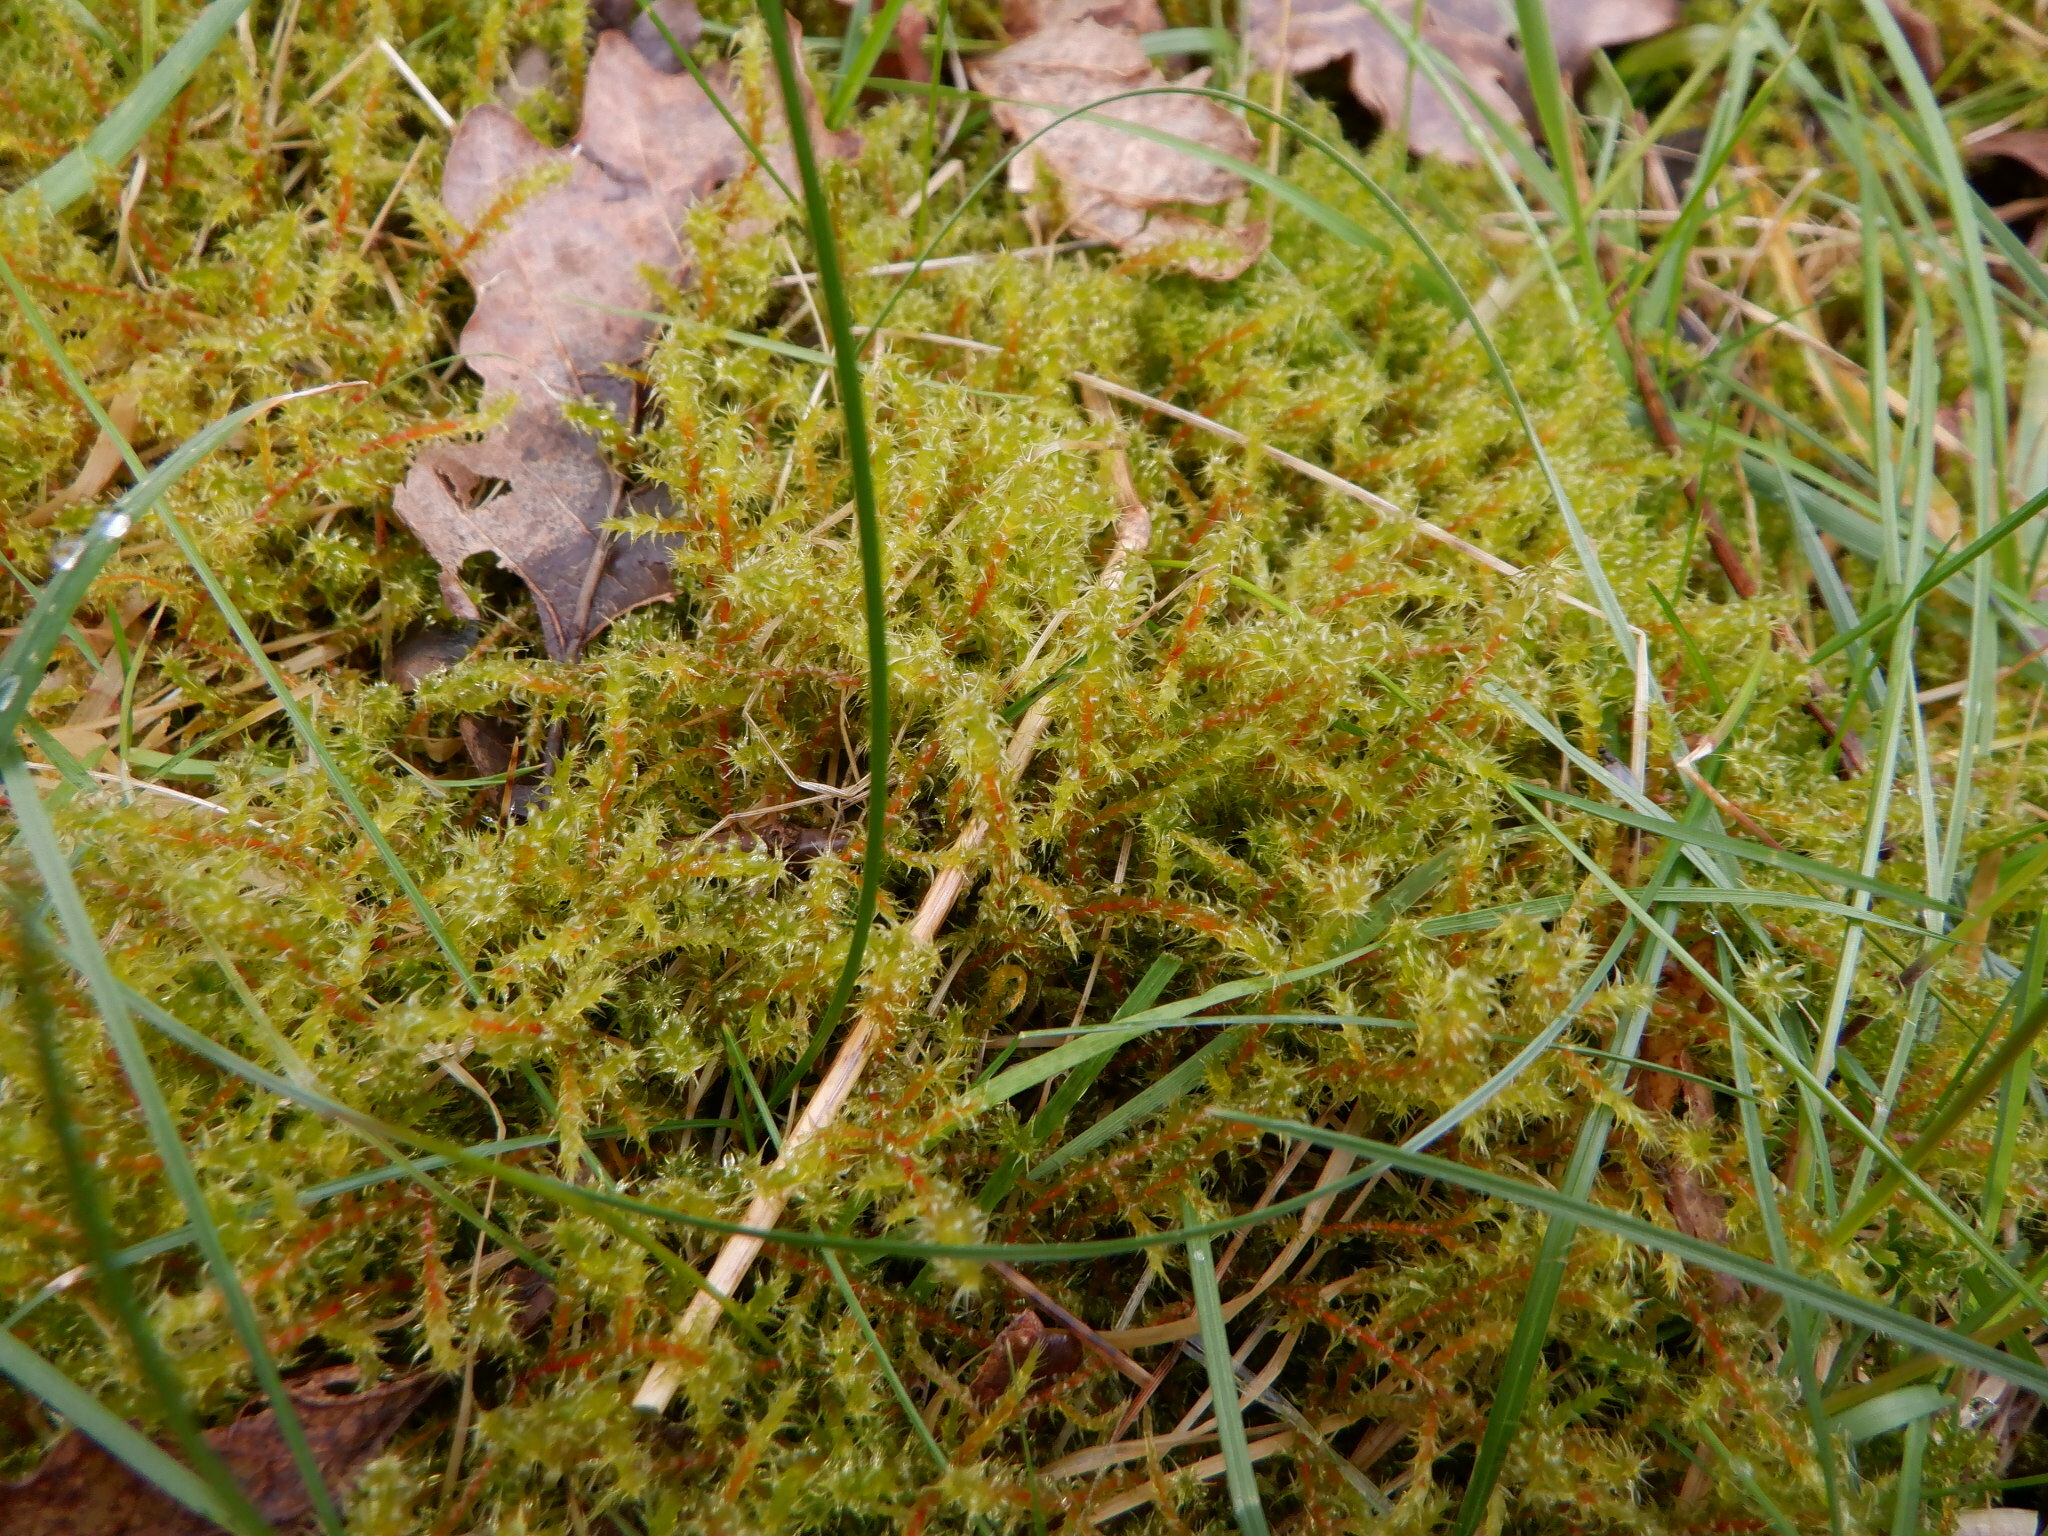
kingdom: Plantae
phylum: Bryophyta
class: Bryopsida
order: Hypnales
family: Hylocomiaceae
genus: Rhytidiadelphus
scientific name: Rhytidiadelphus squarrosus
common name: Springy turf-moss
